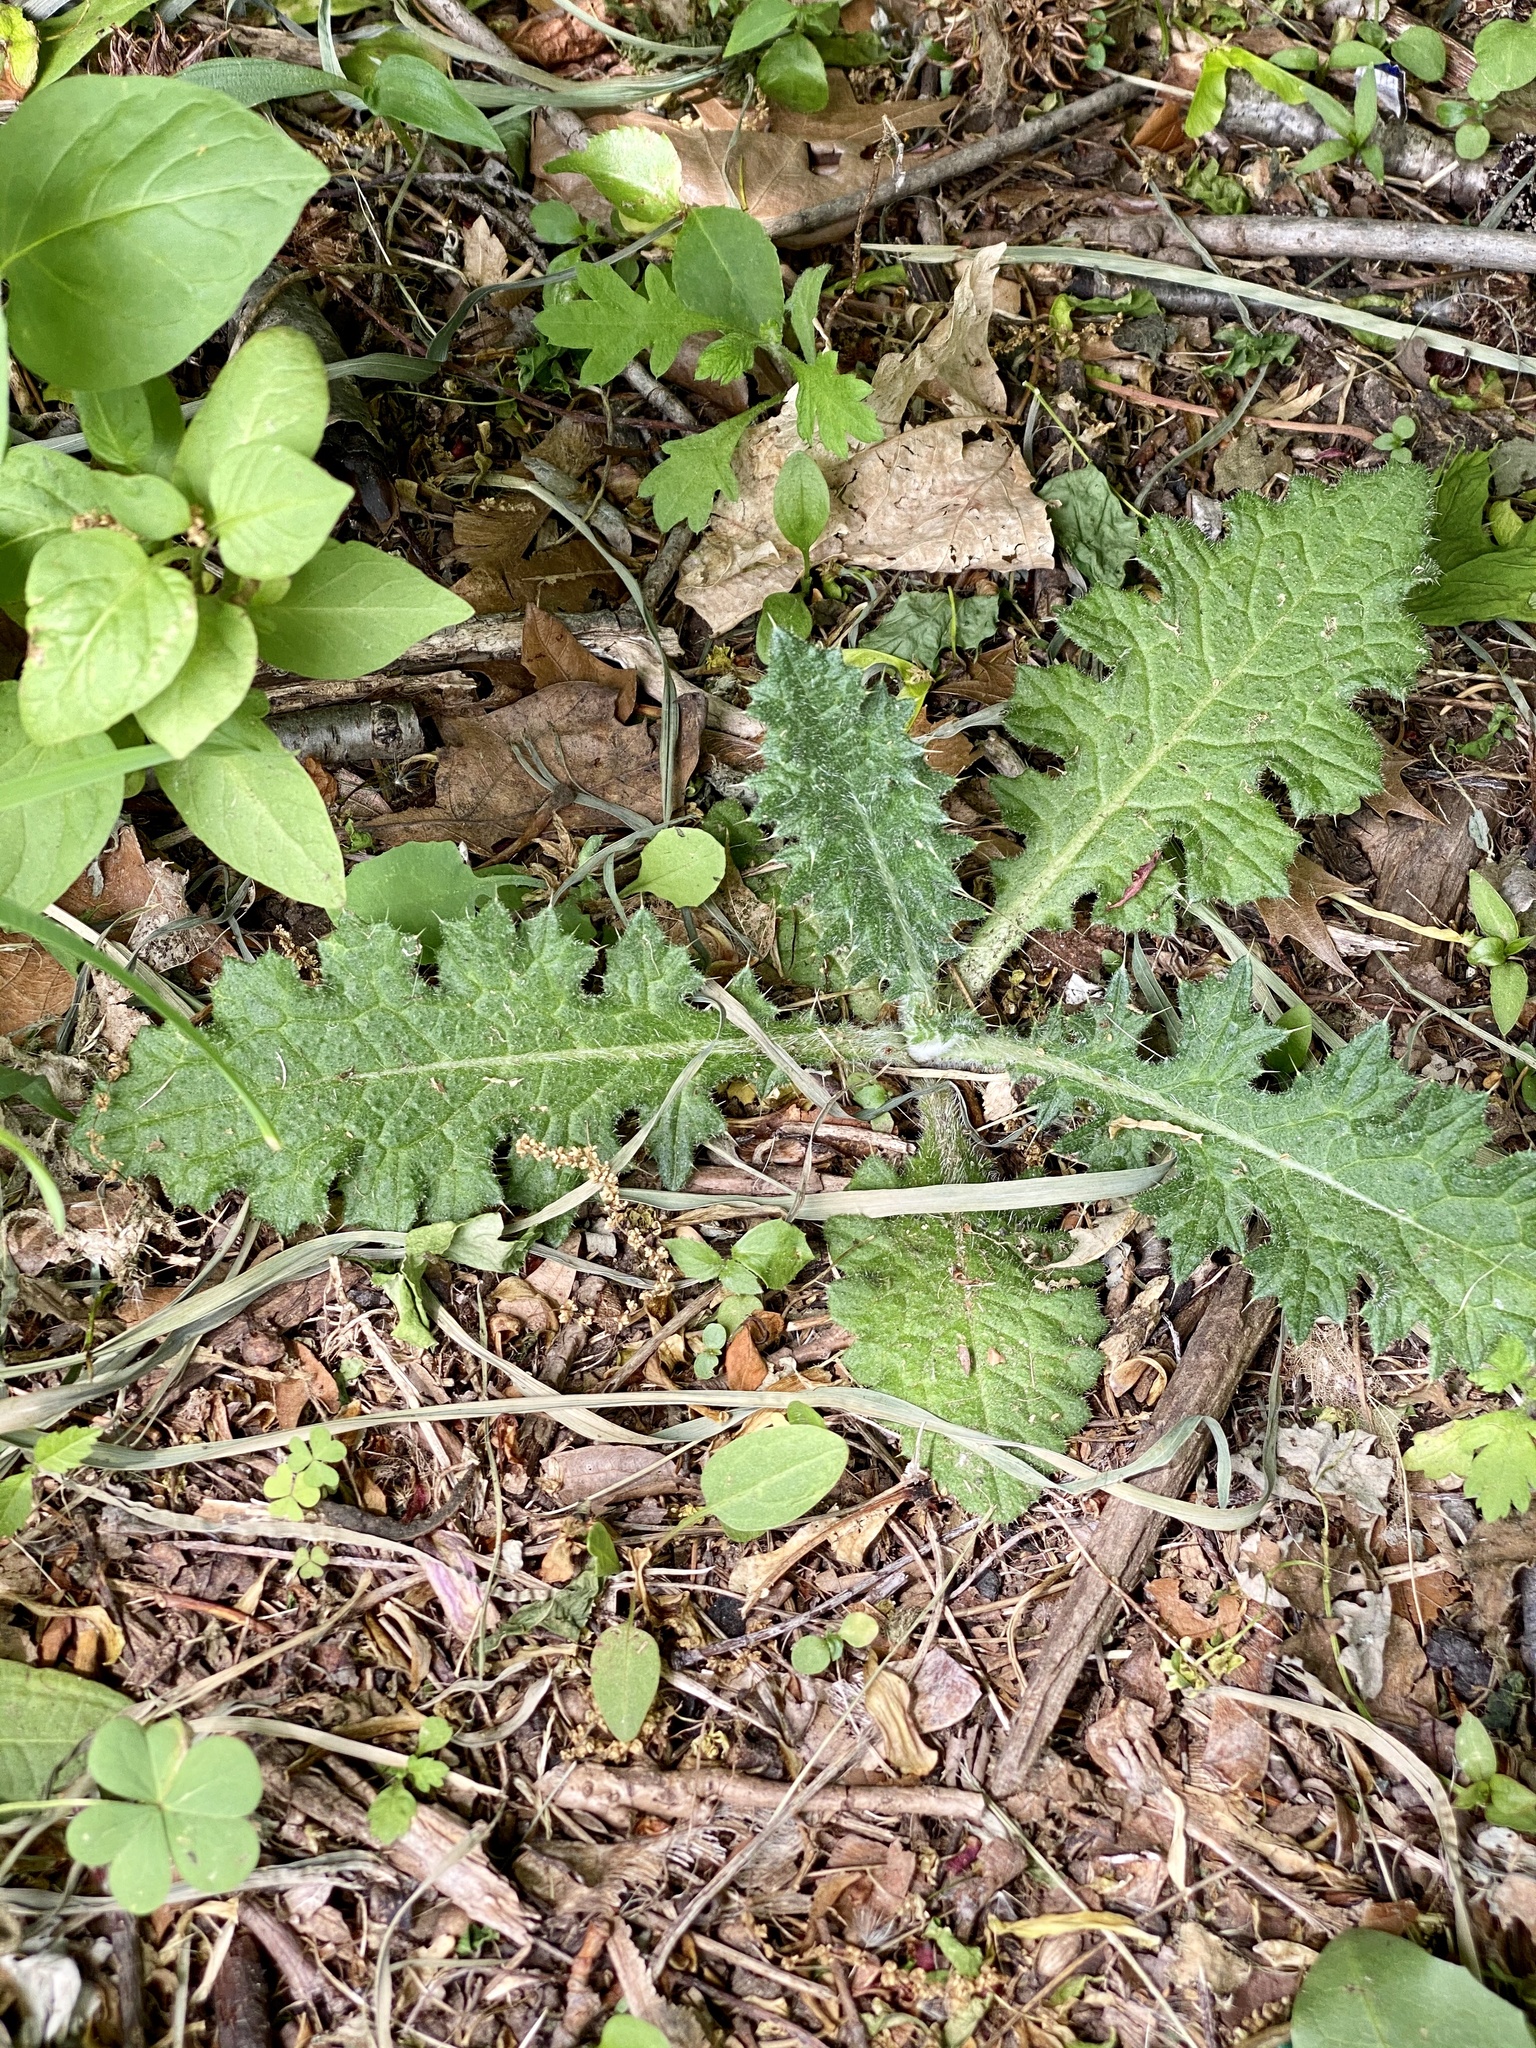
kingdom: Plantae
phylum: Tracheophyta
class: Magnoliopsida
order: Asterales
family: Asteraceae
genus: Cirsium
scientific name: Cirsium vulgare
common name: Bull thistle
